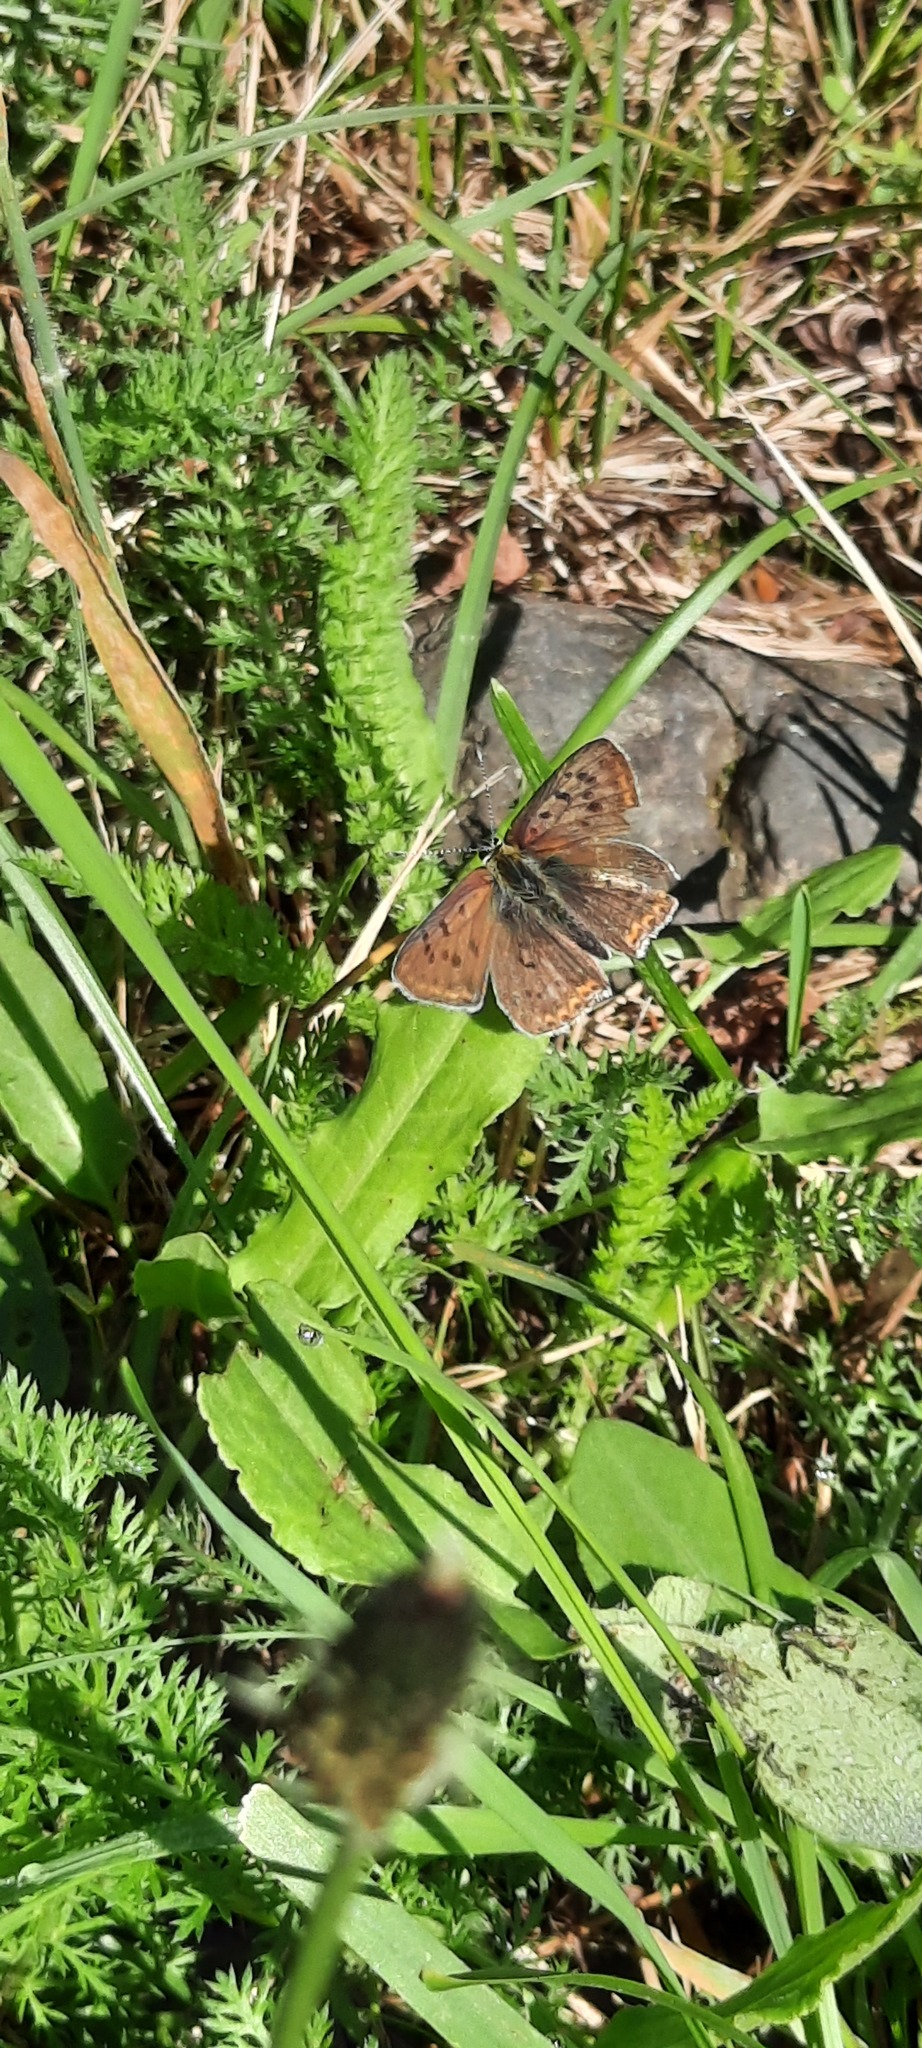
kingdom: Animalia
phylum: Arthropoda
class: Insecta
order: Lepidoptera
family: Lycaenidae
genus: Loweia
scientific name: Loweia tityrus
